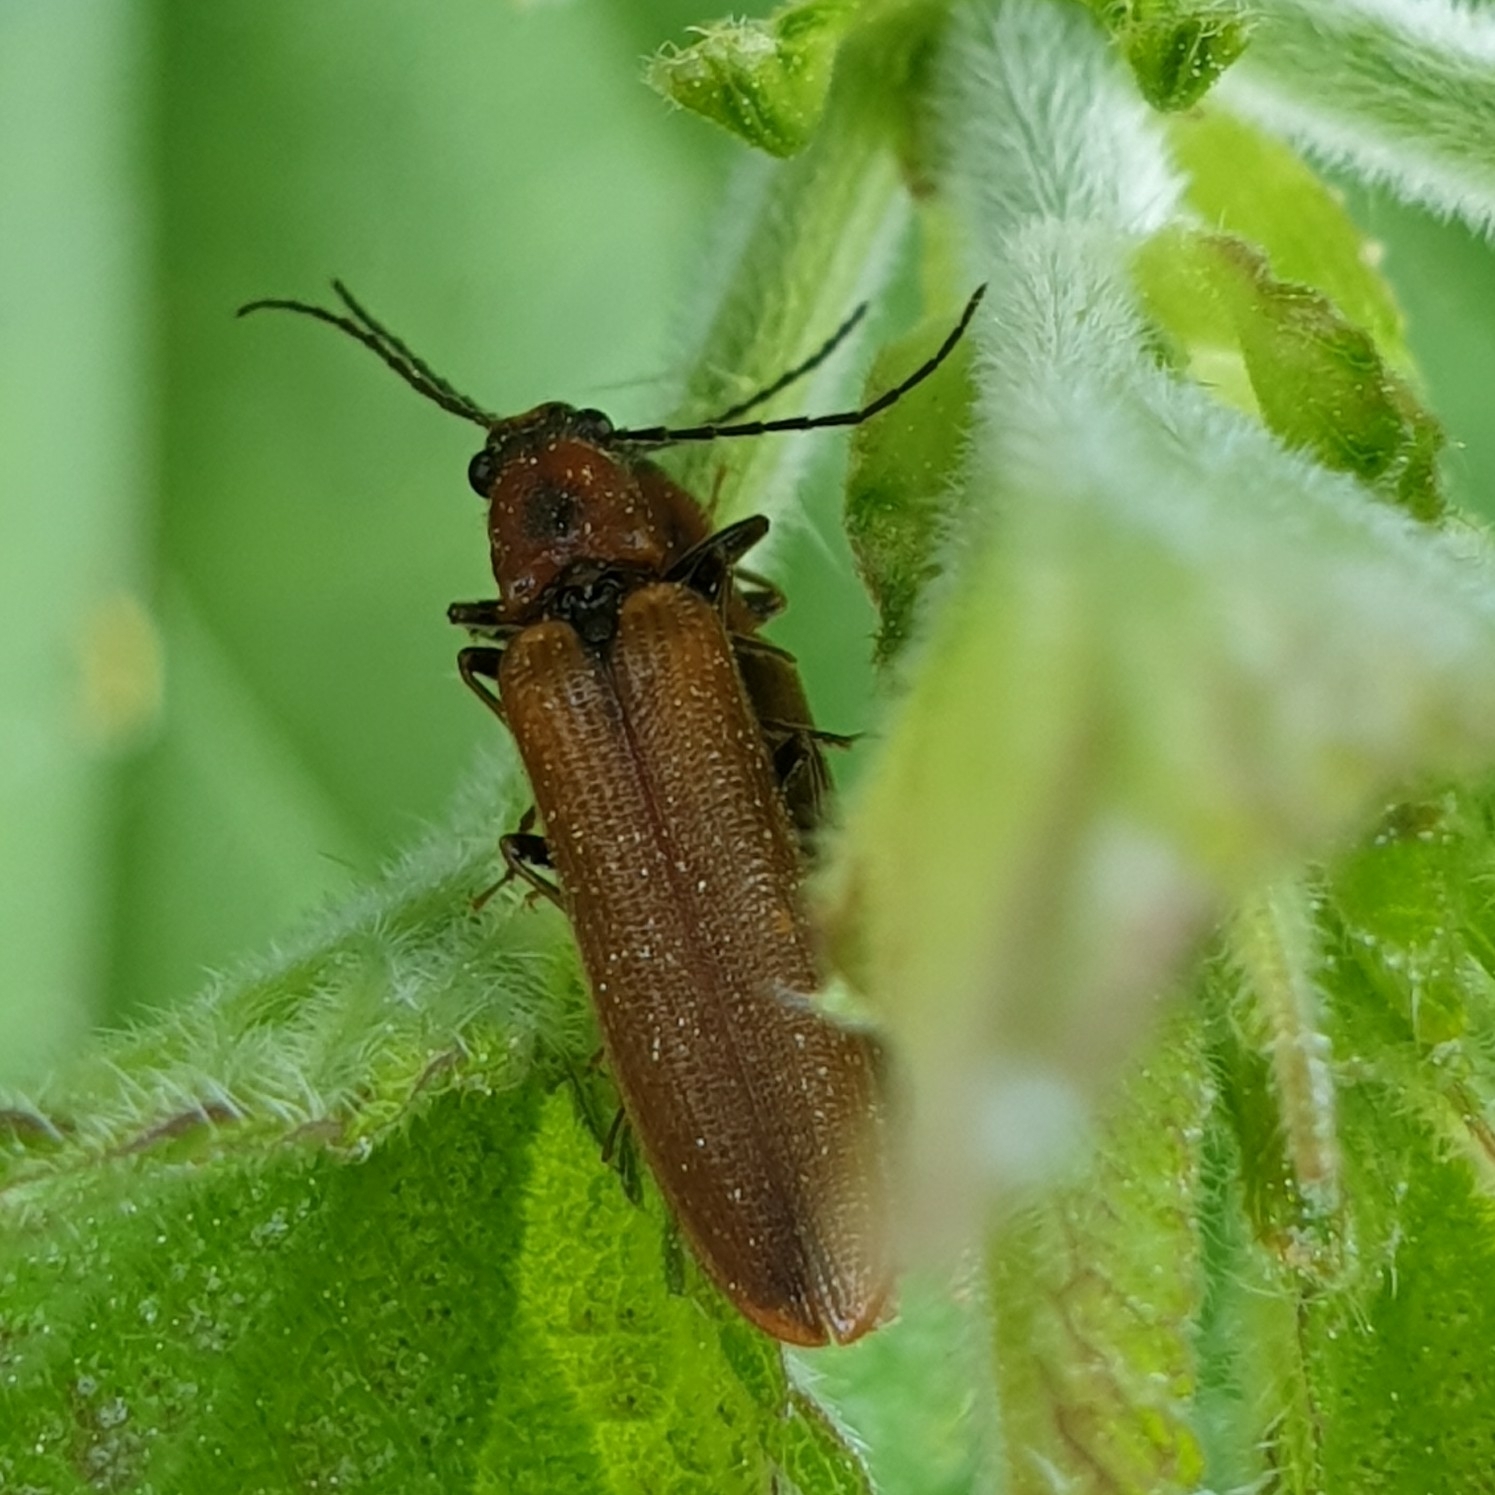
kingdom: Animalia
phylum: Arthropoda
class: Insecta
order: Coleoptera
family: Elateridae
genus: Denticollis
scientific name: Denticollis linearis
